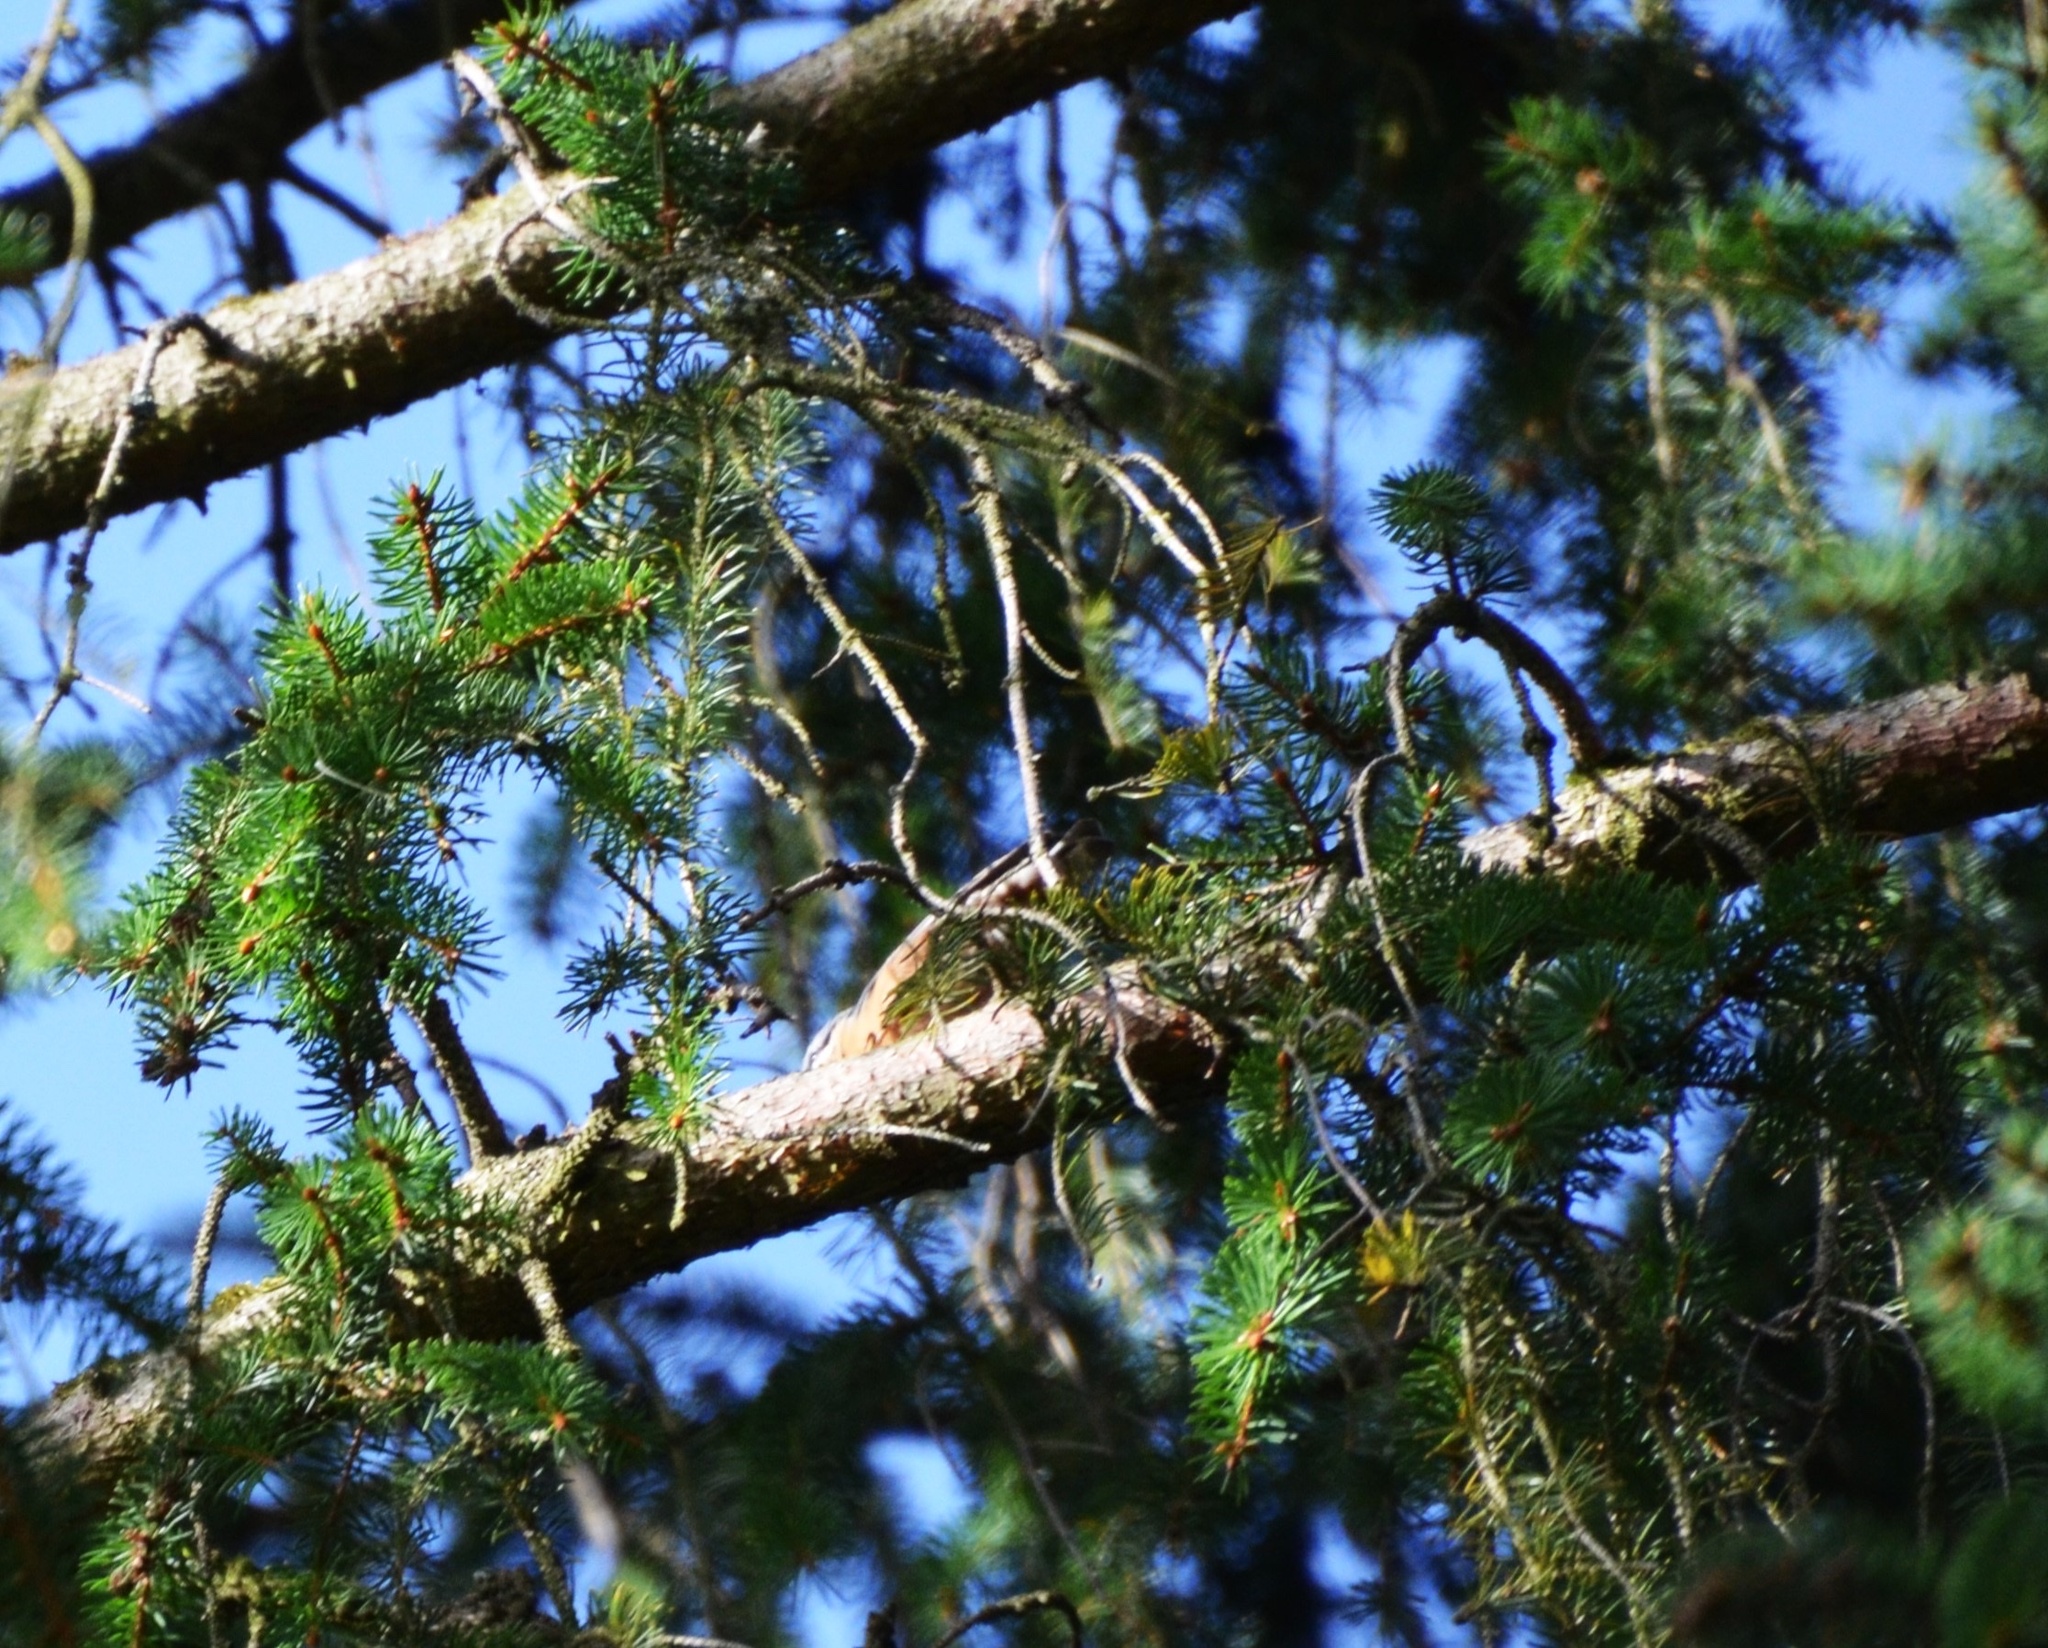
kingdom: Animalia
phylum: Chordata
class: Aves
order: Passeriformes
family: Sittidae
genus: Sitta
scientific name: Sitta europaea
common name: Eurasian nuthatch
